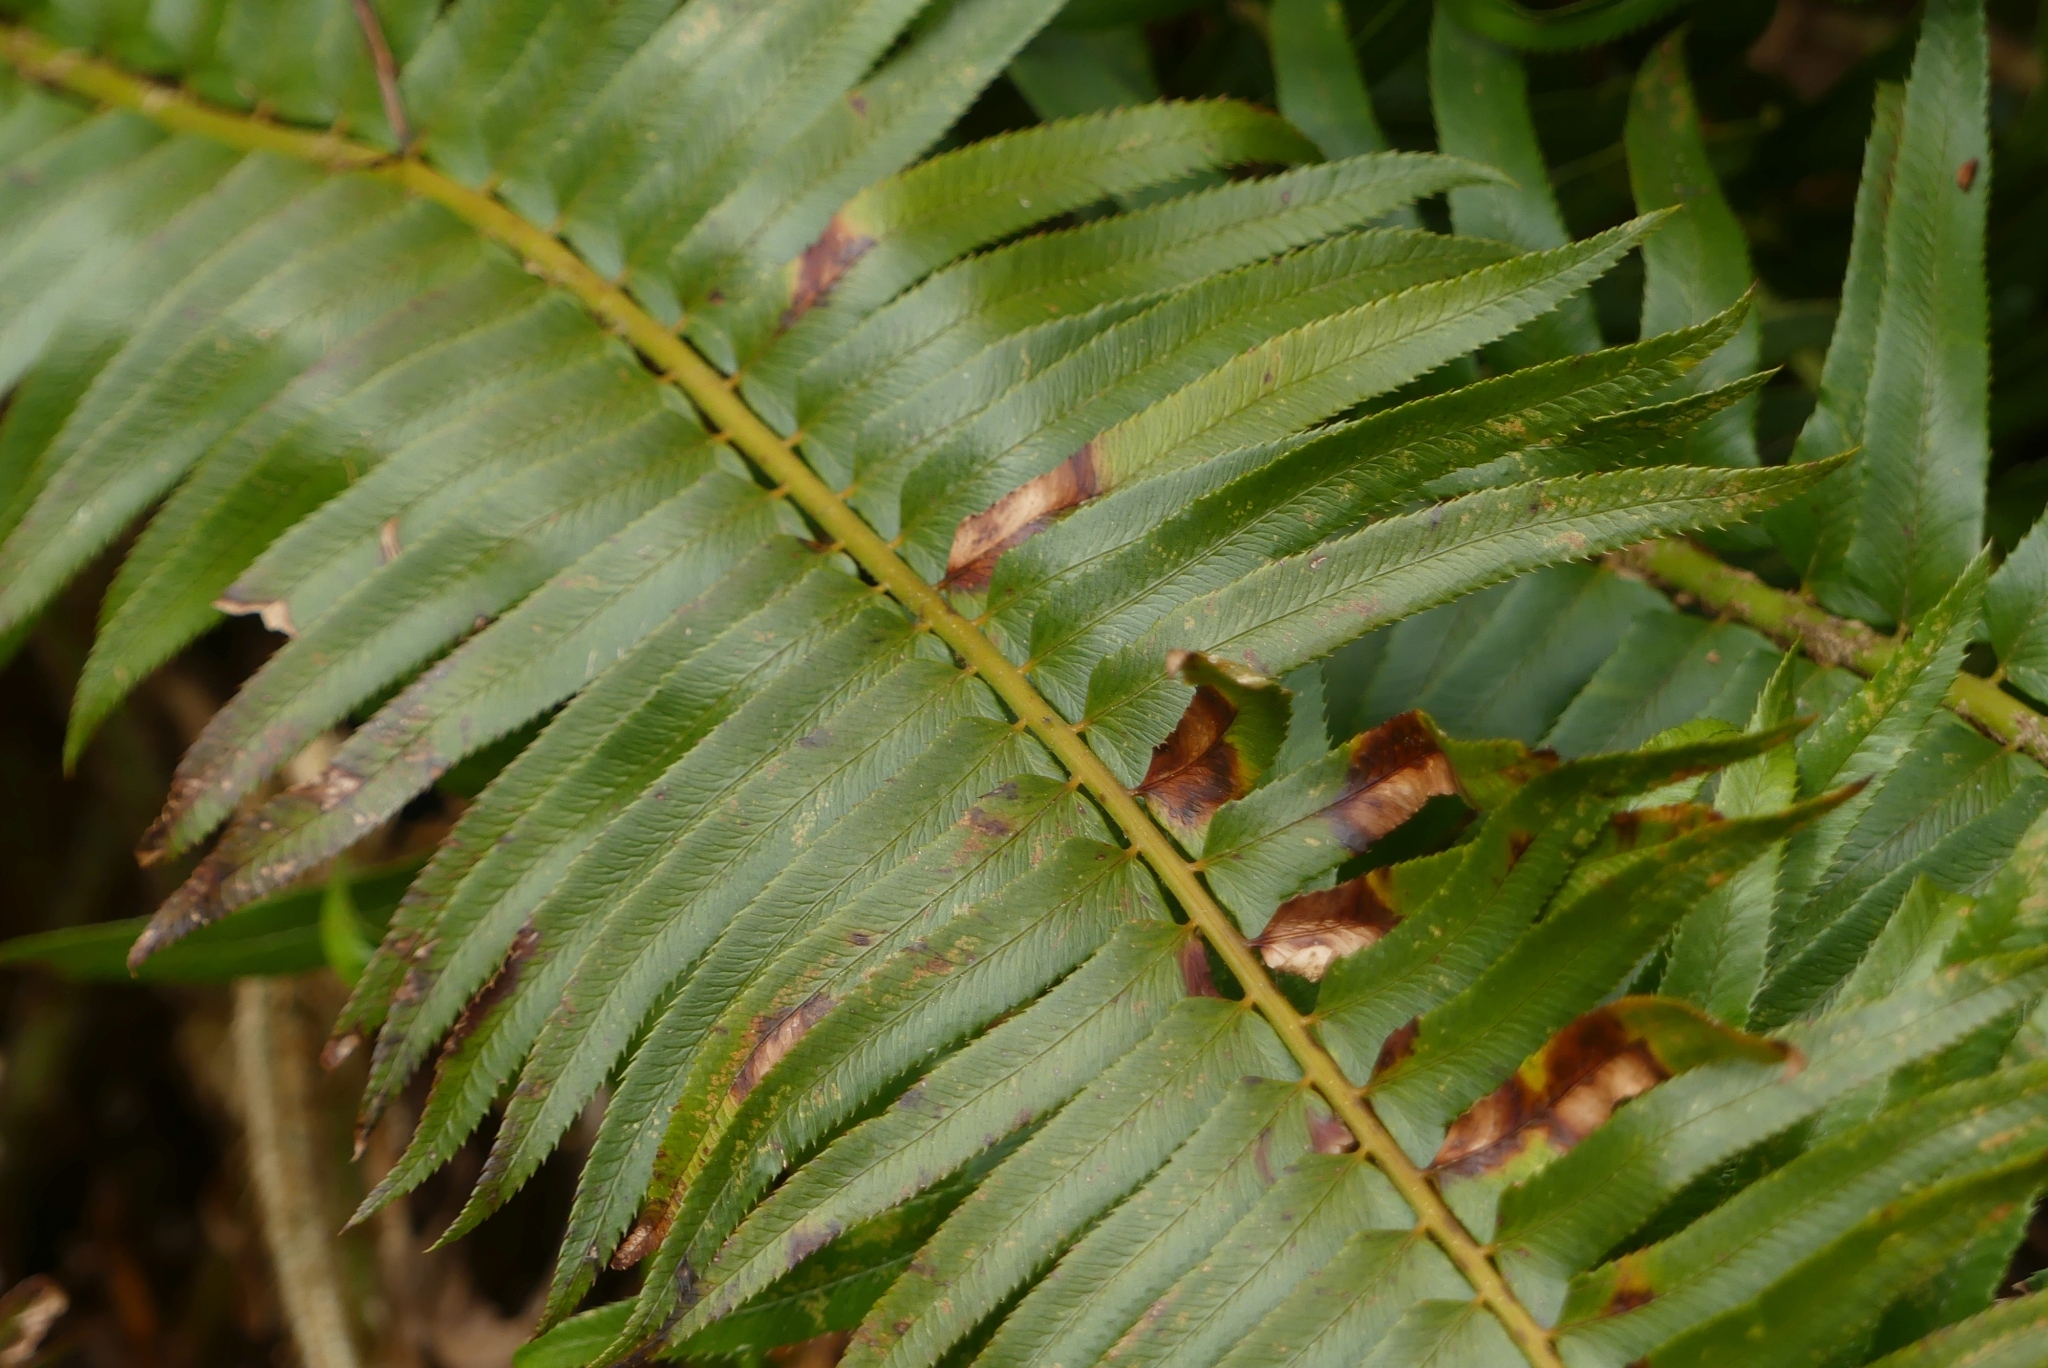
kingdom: Plantae
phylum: Tracheophyta
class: Polypodiopsida
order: Polypodiales
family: Dryopteridaceae
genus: Polystichum
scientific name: Polystichum munitum
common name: Western sword-fern
